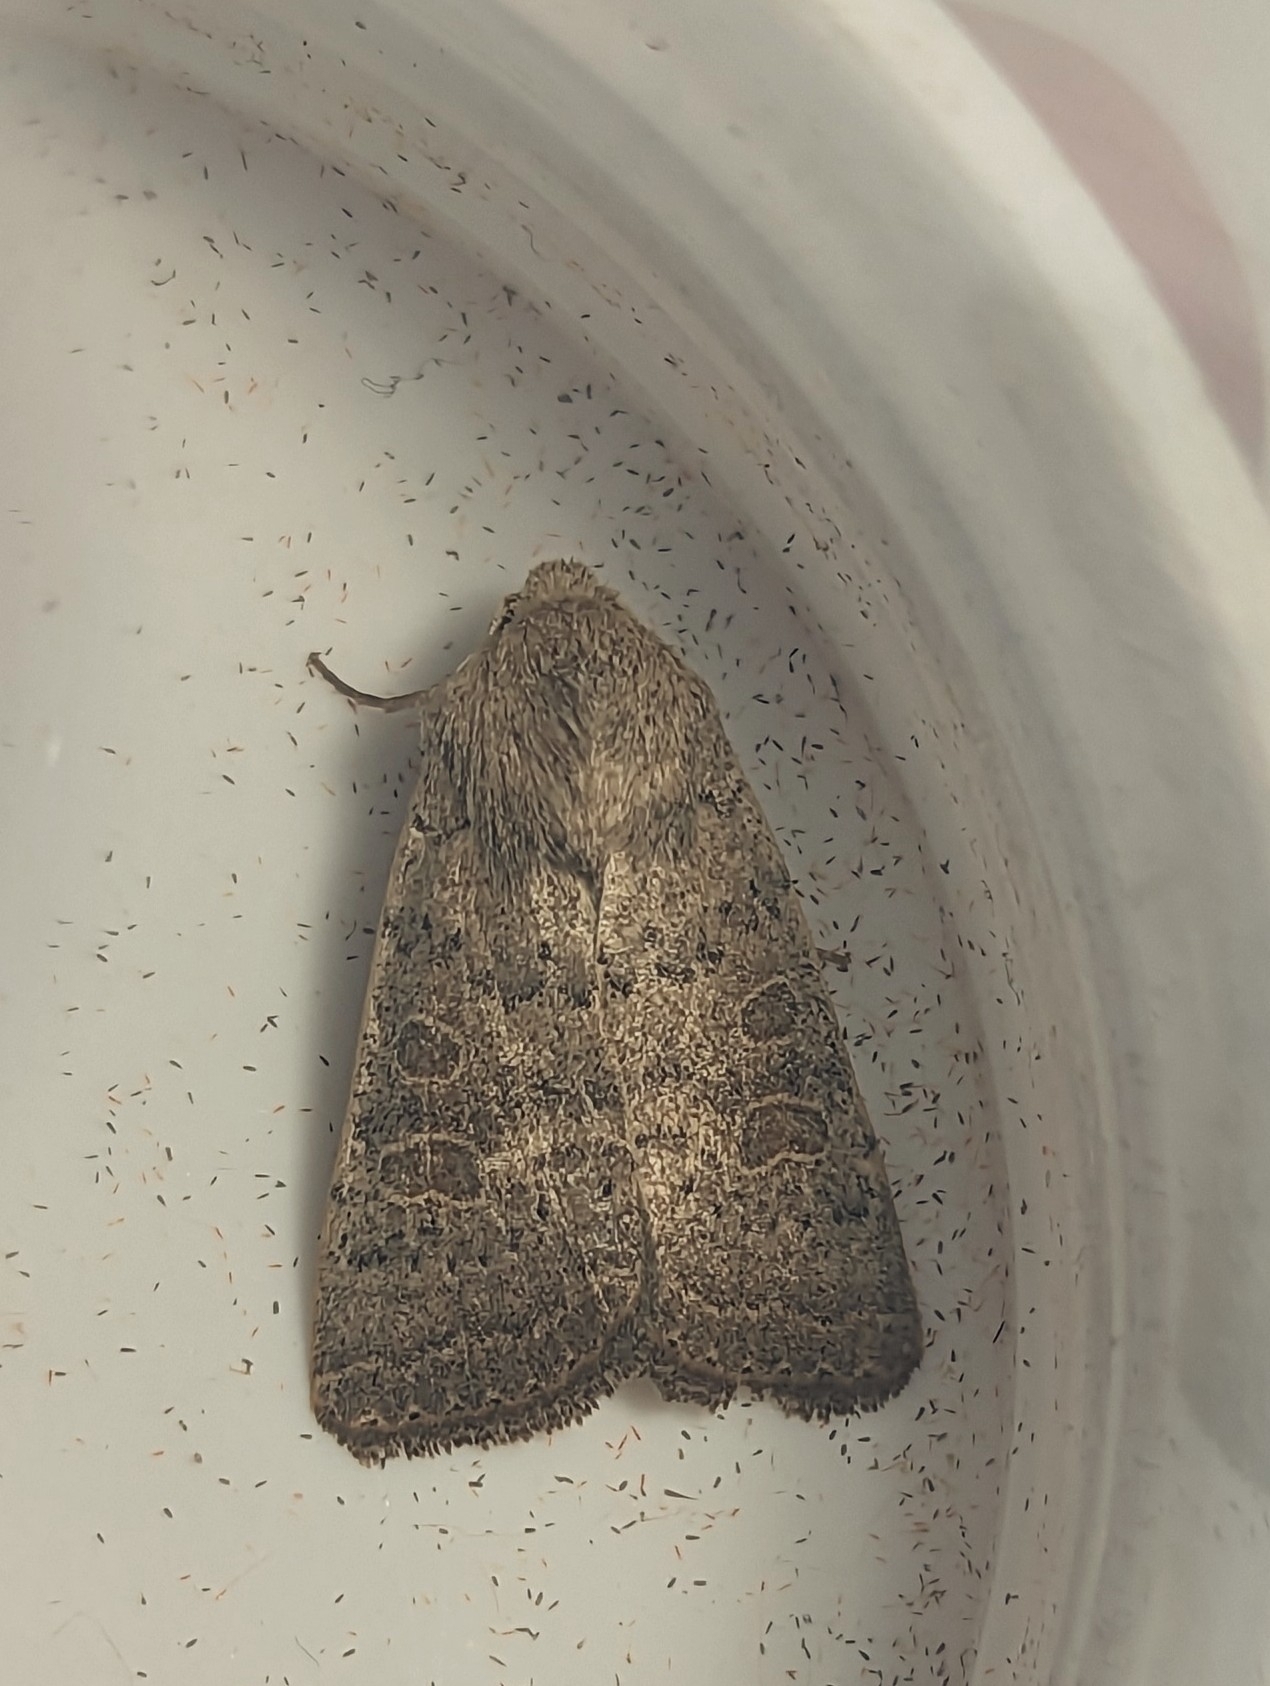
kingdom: Animalia
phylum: Arthropoda
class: Insecta
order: Lepidoptera
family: Noctuidae
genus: Hoplodrina
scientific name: Hoplodrina ambigua
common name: Vine's rustic
